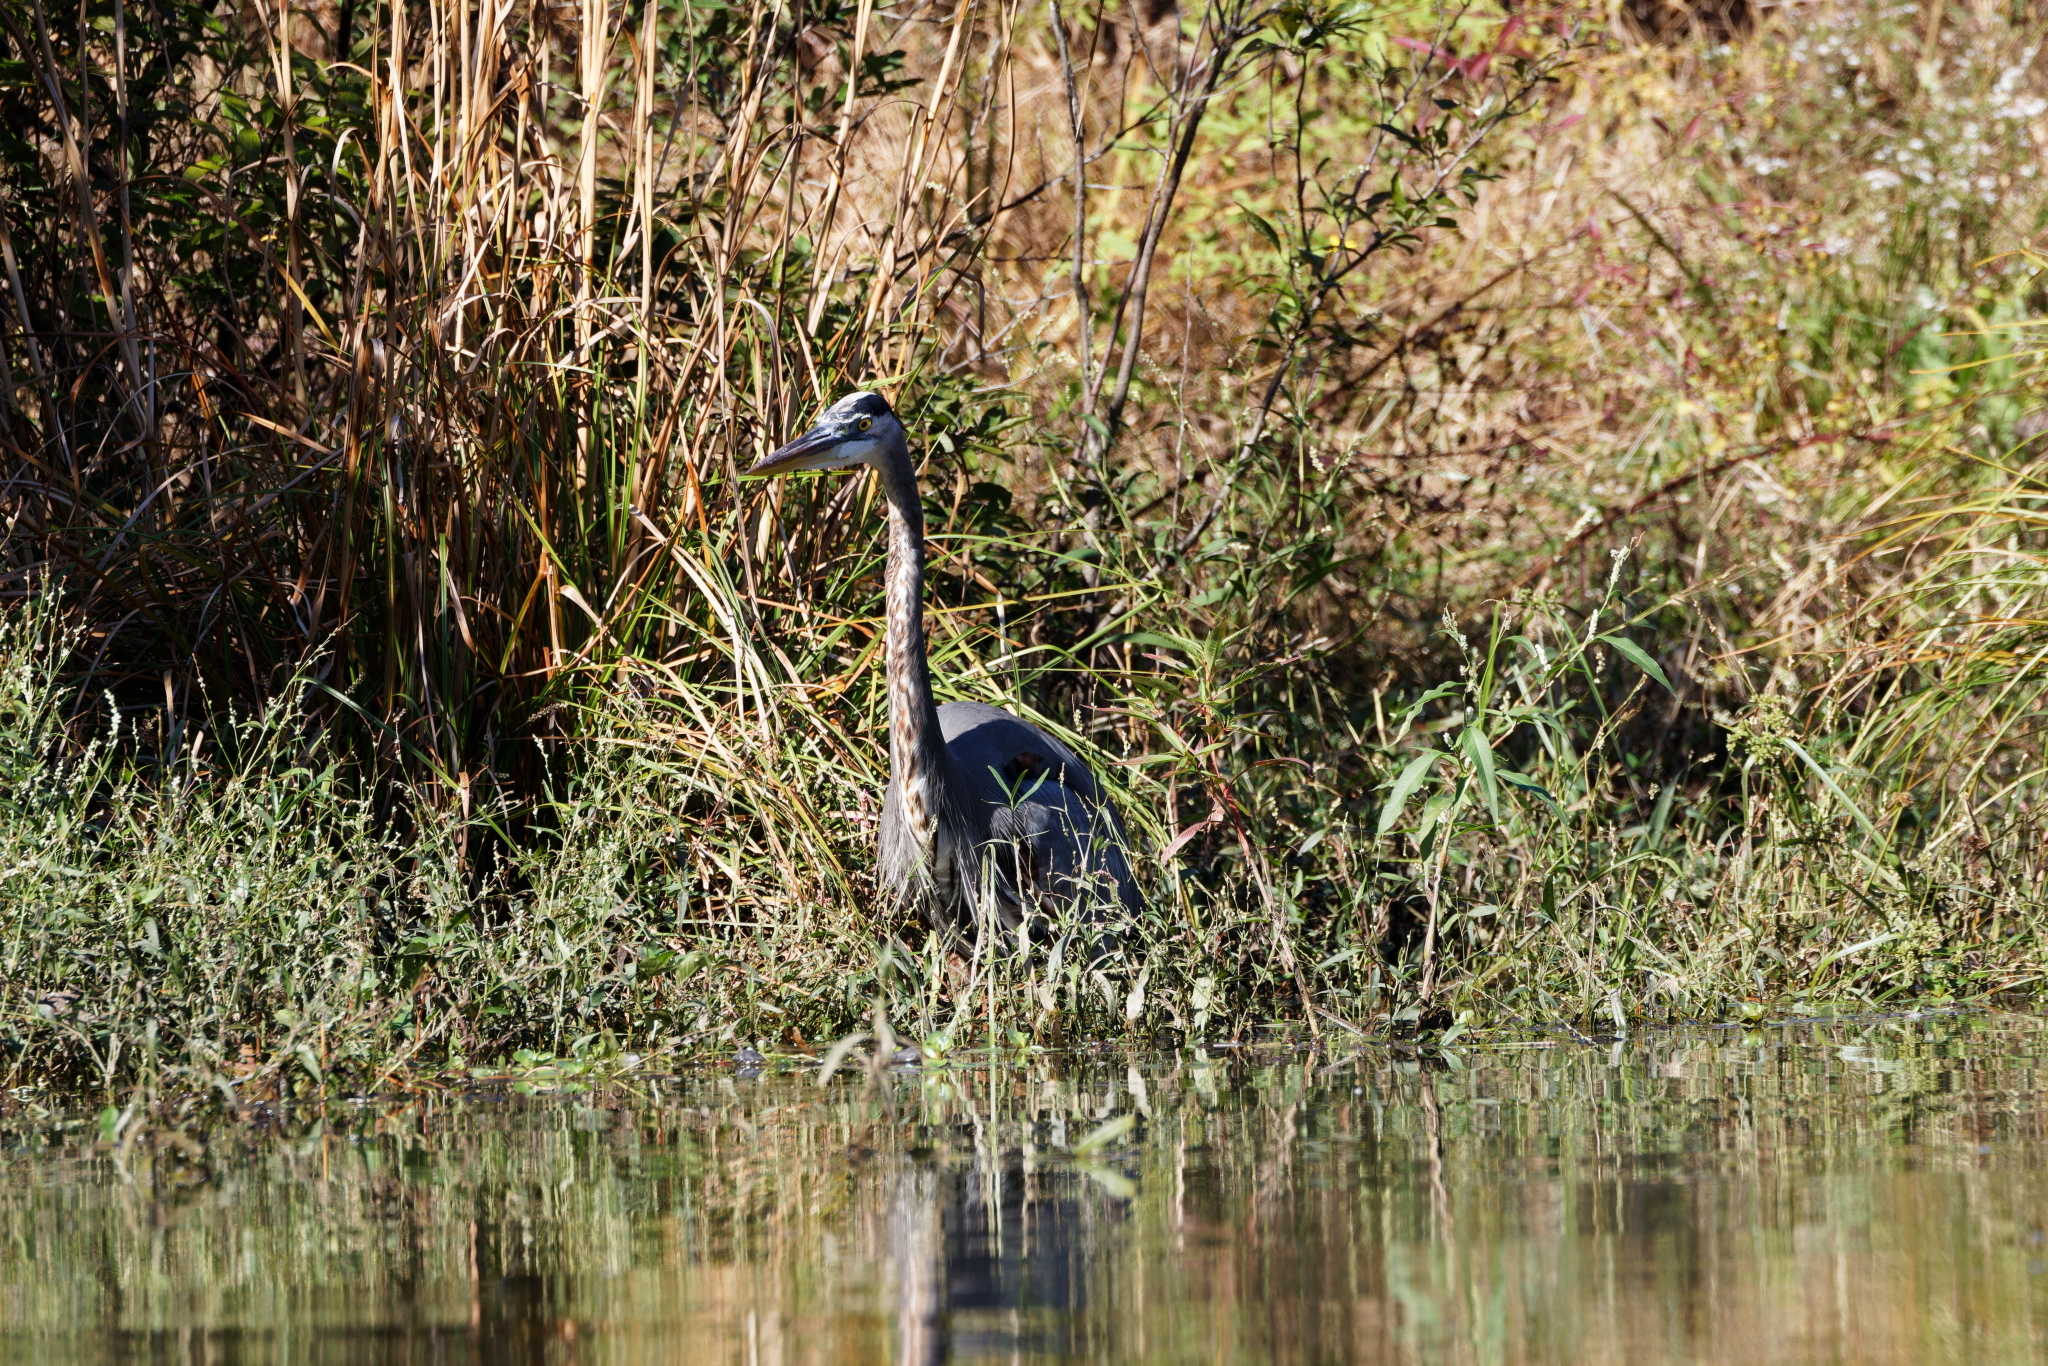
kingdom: Animalia
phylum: Chordata
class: Aves
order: Pelecaniformes
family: Ardeidae
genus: Ardea
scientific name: Ardea herodias
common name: Great blue heron
